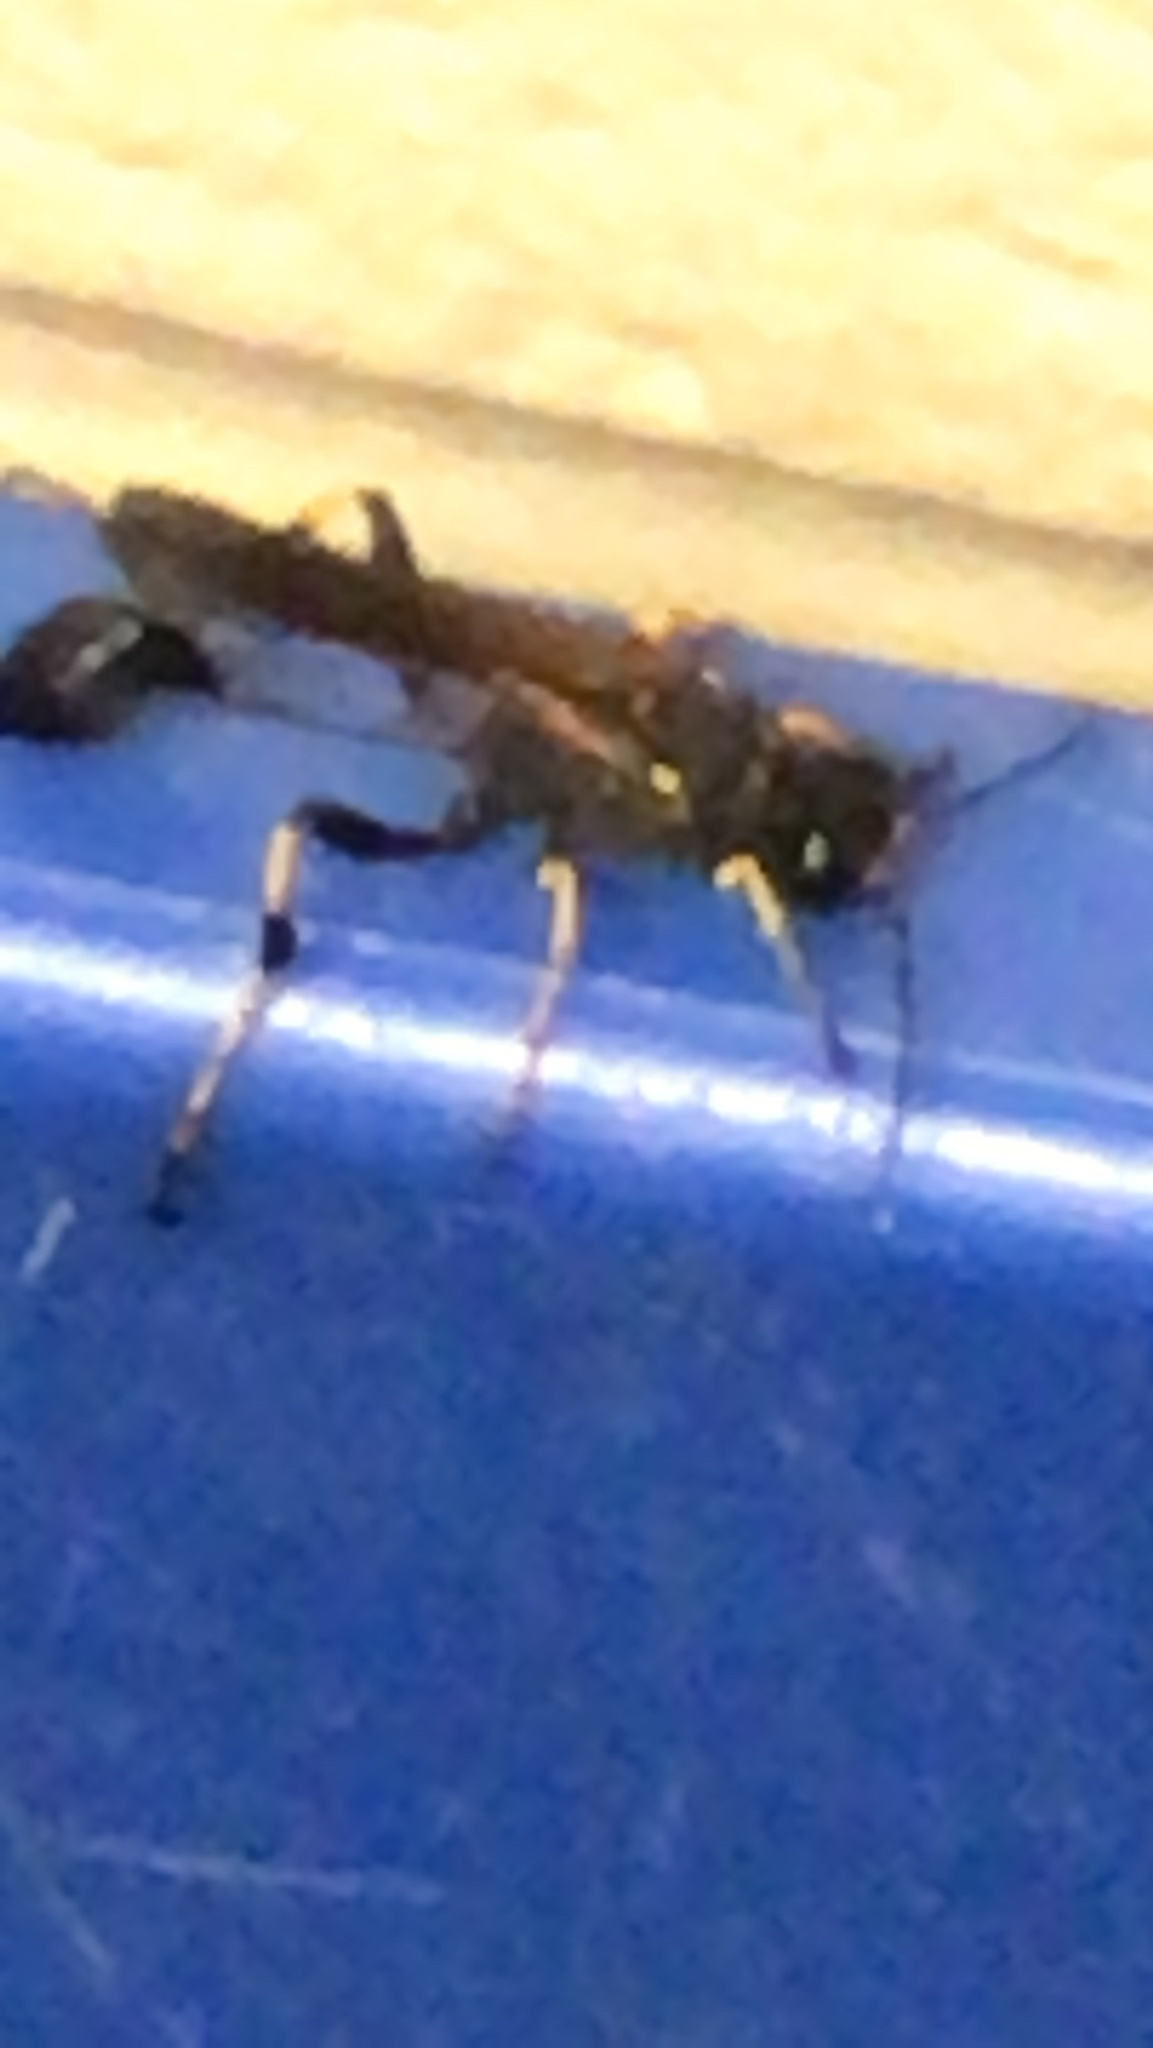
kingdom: Animalia
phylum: Arthropoda
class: Insecta
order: Hymenoptera
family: Sphecidae
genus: Sceliphron
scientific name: Sceliphron caementarium
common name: Mud dauber
